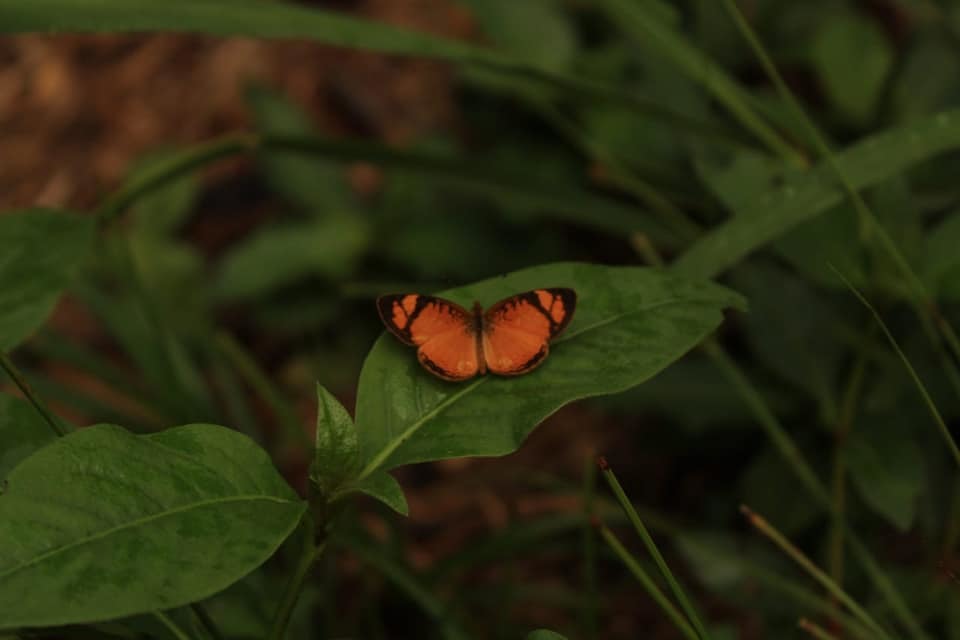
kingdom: Animalia
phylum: Arthropoda
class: Insecta
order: Lepidoptera
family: Nymphalidae
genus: Tegosa
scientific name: Tegosa claudina
